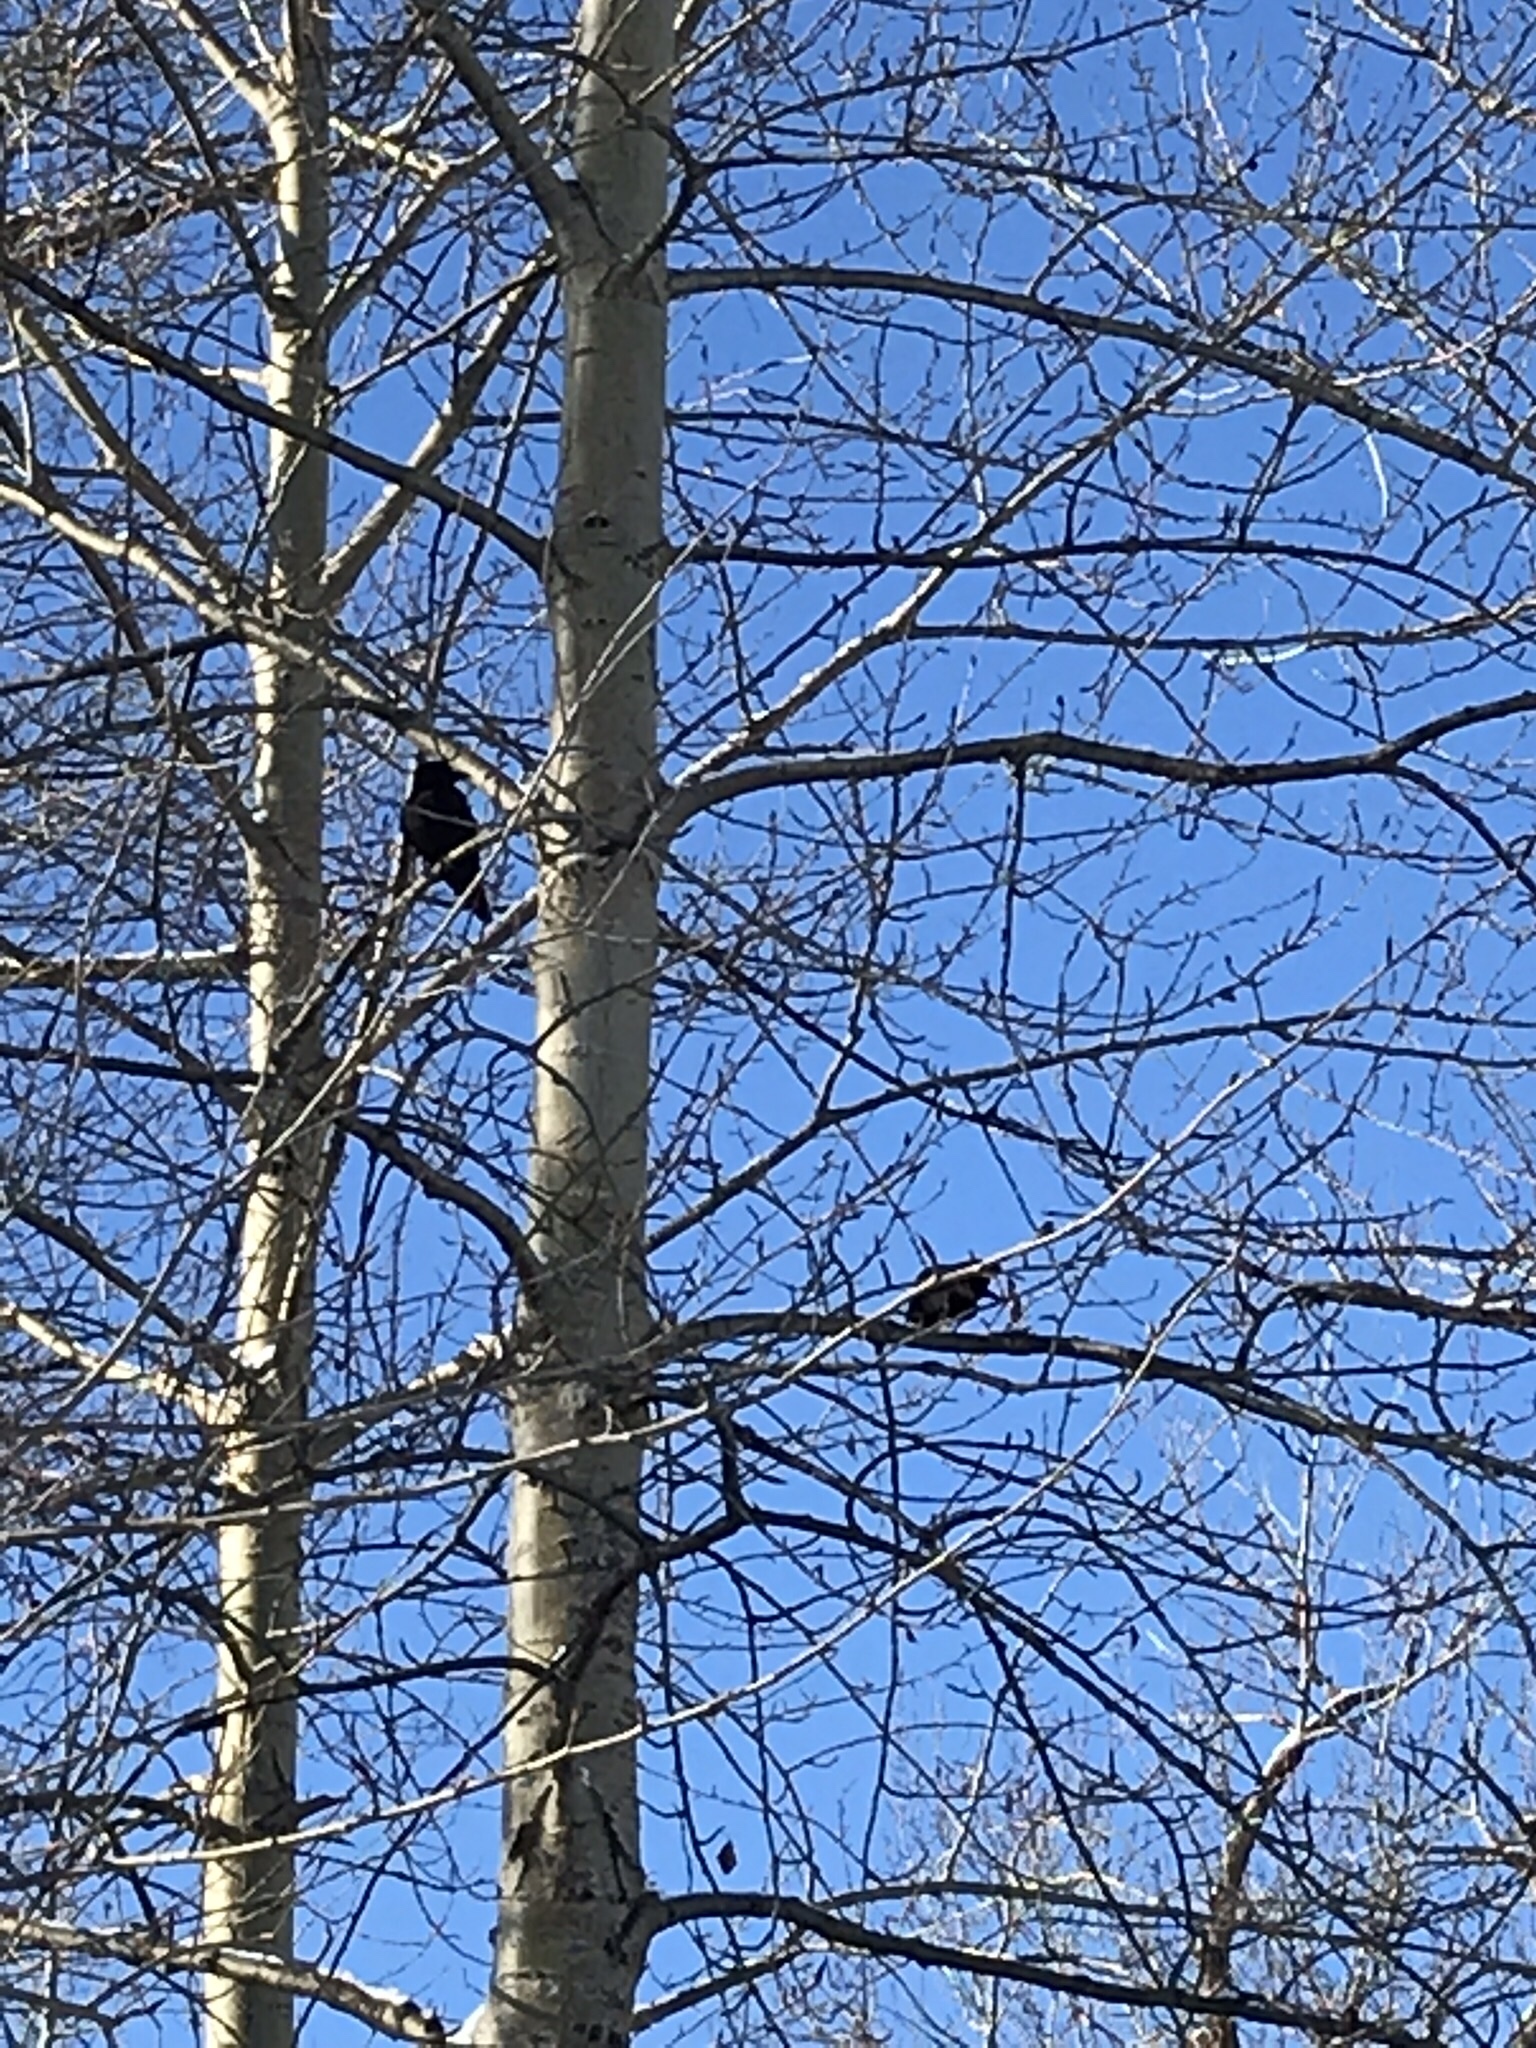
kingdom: Animalia
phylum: Chordata
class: Aves
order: Passeriformes
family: Corvidae
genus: Corvus
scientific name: Corvus brachyrhynchos
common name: American crow
